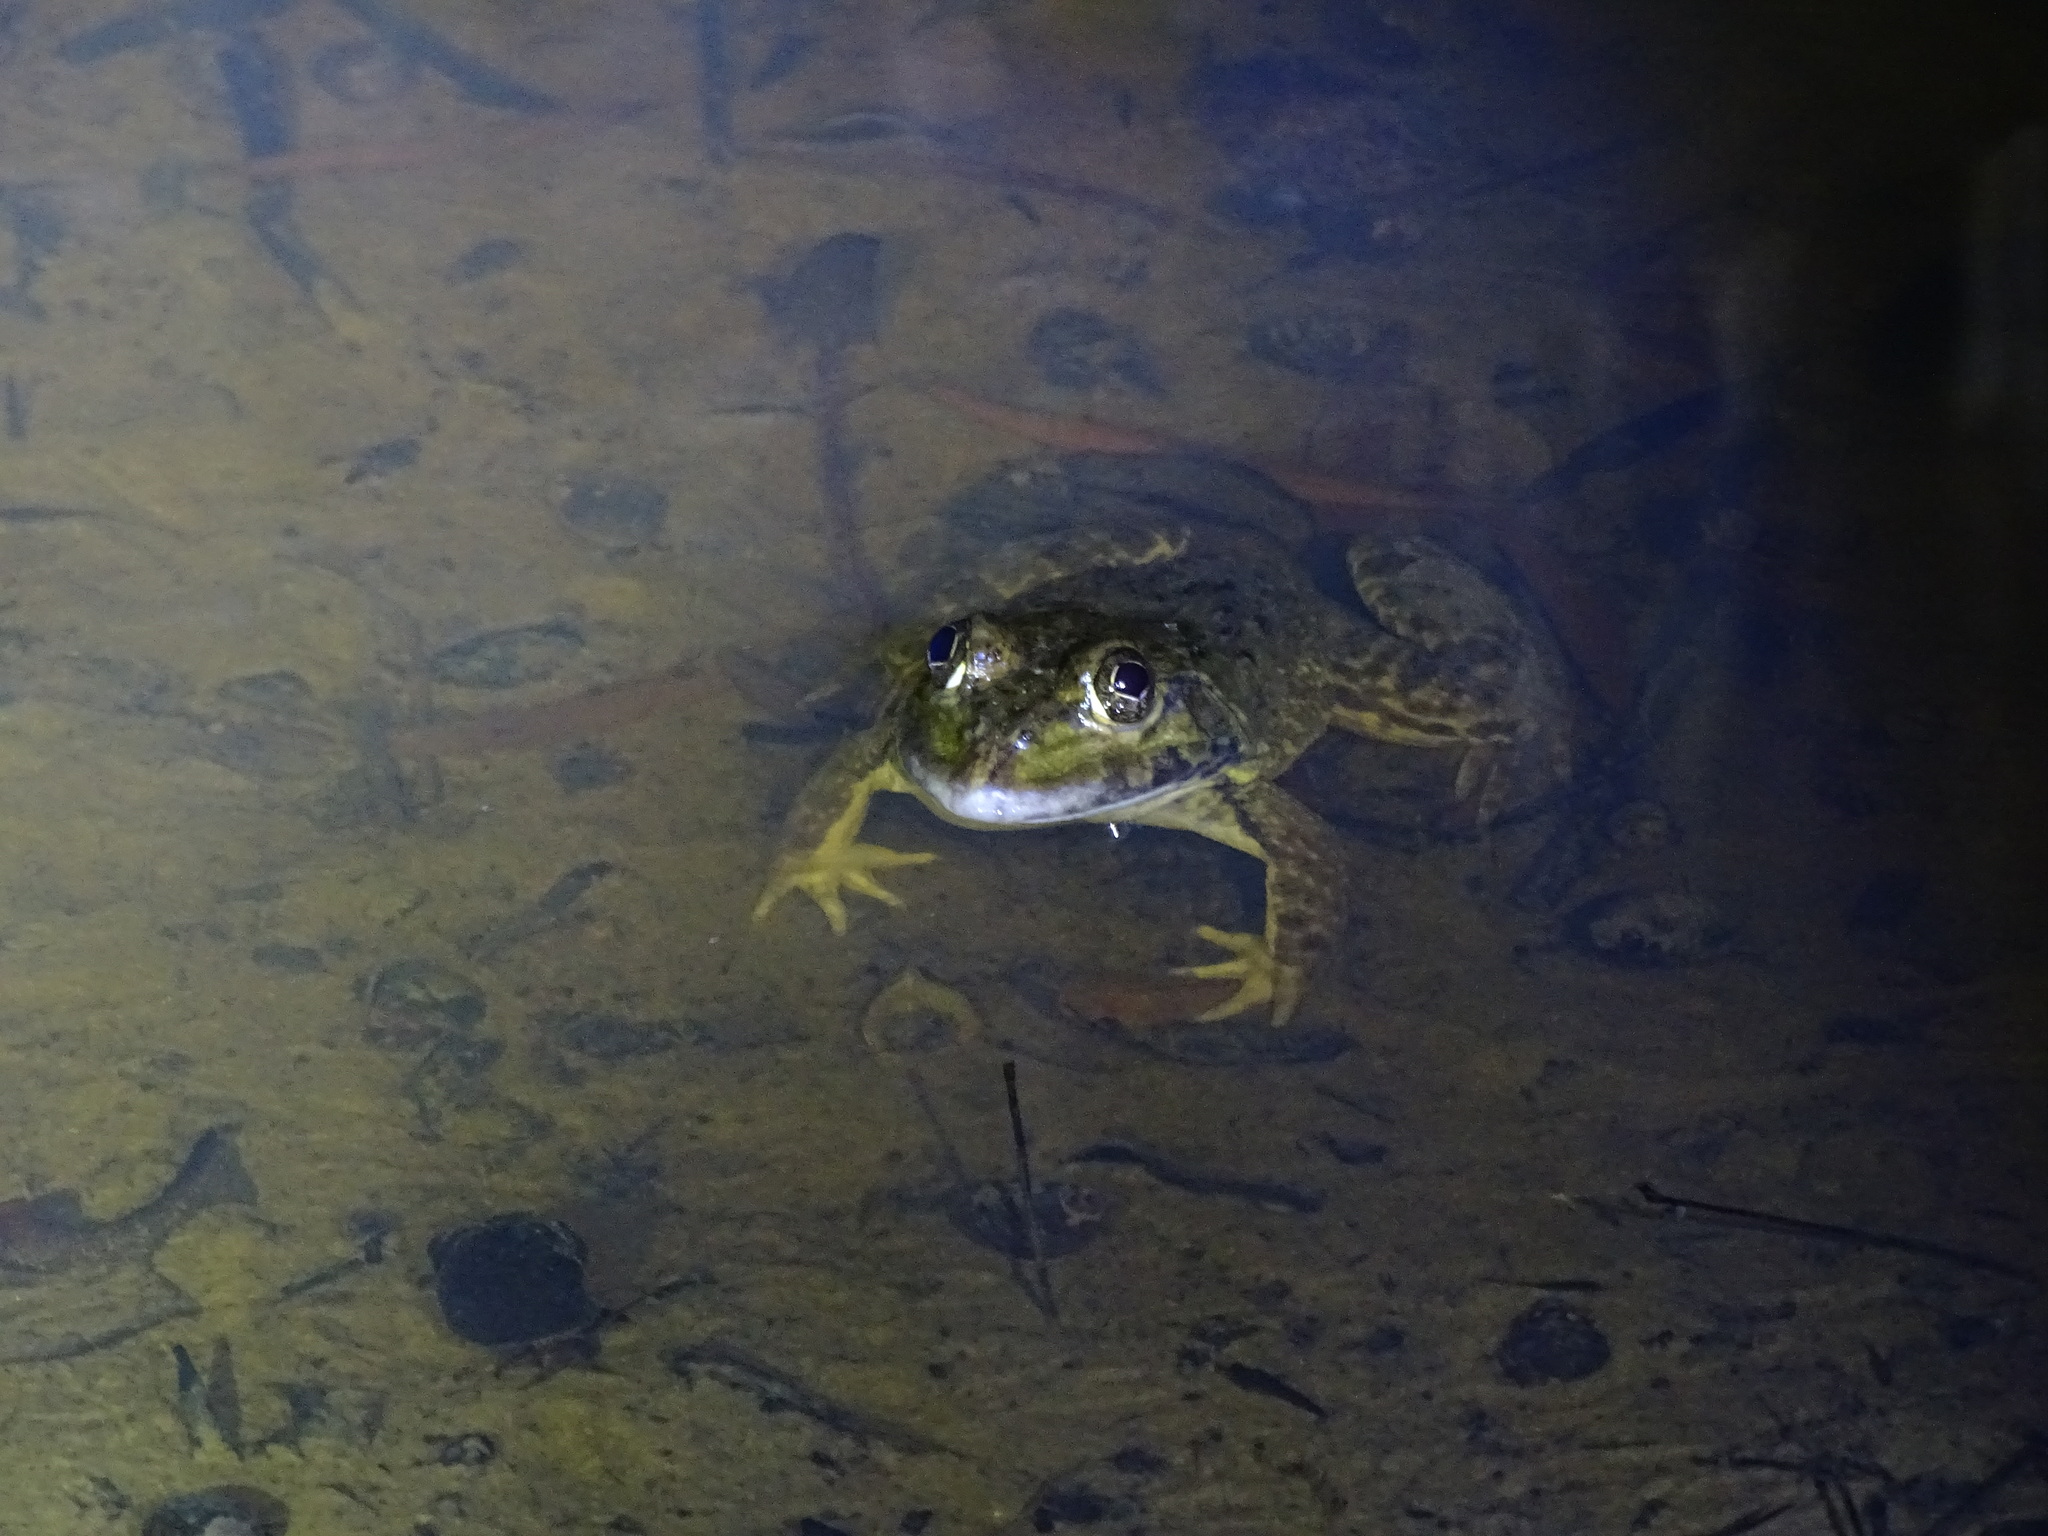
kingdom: Animalia
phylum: Chordata
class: Amphibia
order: Anura
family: Dicroglossidae
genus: Hoplobatrachus
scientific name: Hoplobatrachus rugulosus
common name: Chinese edible frog
